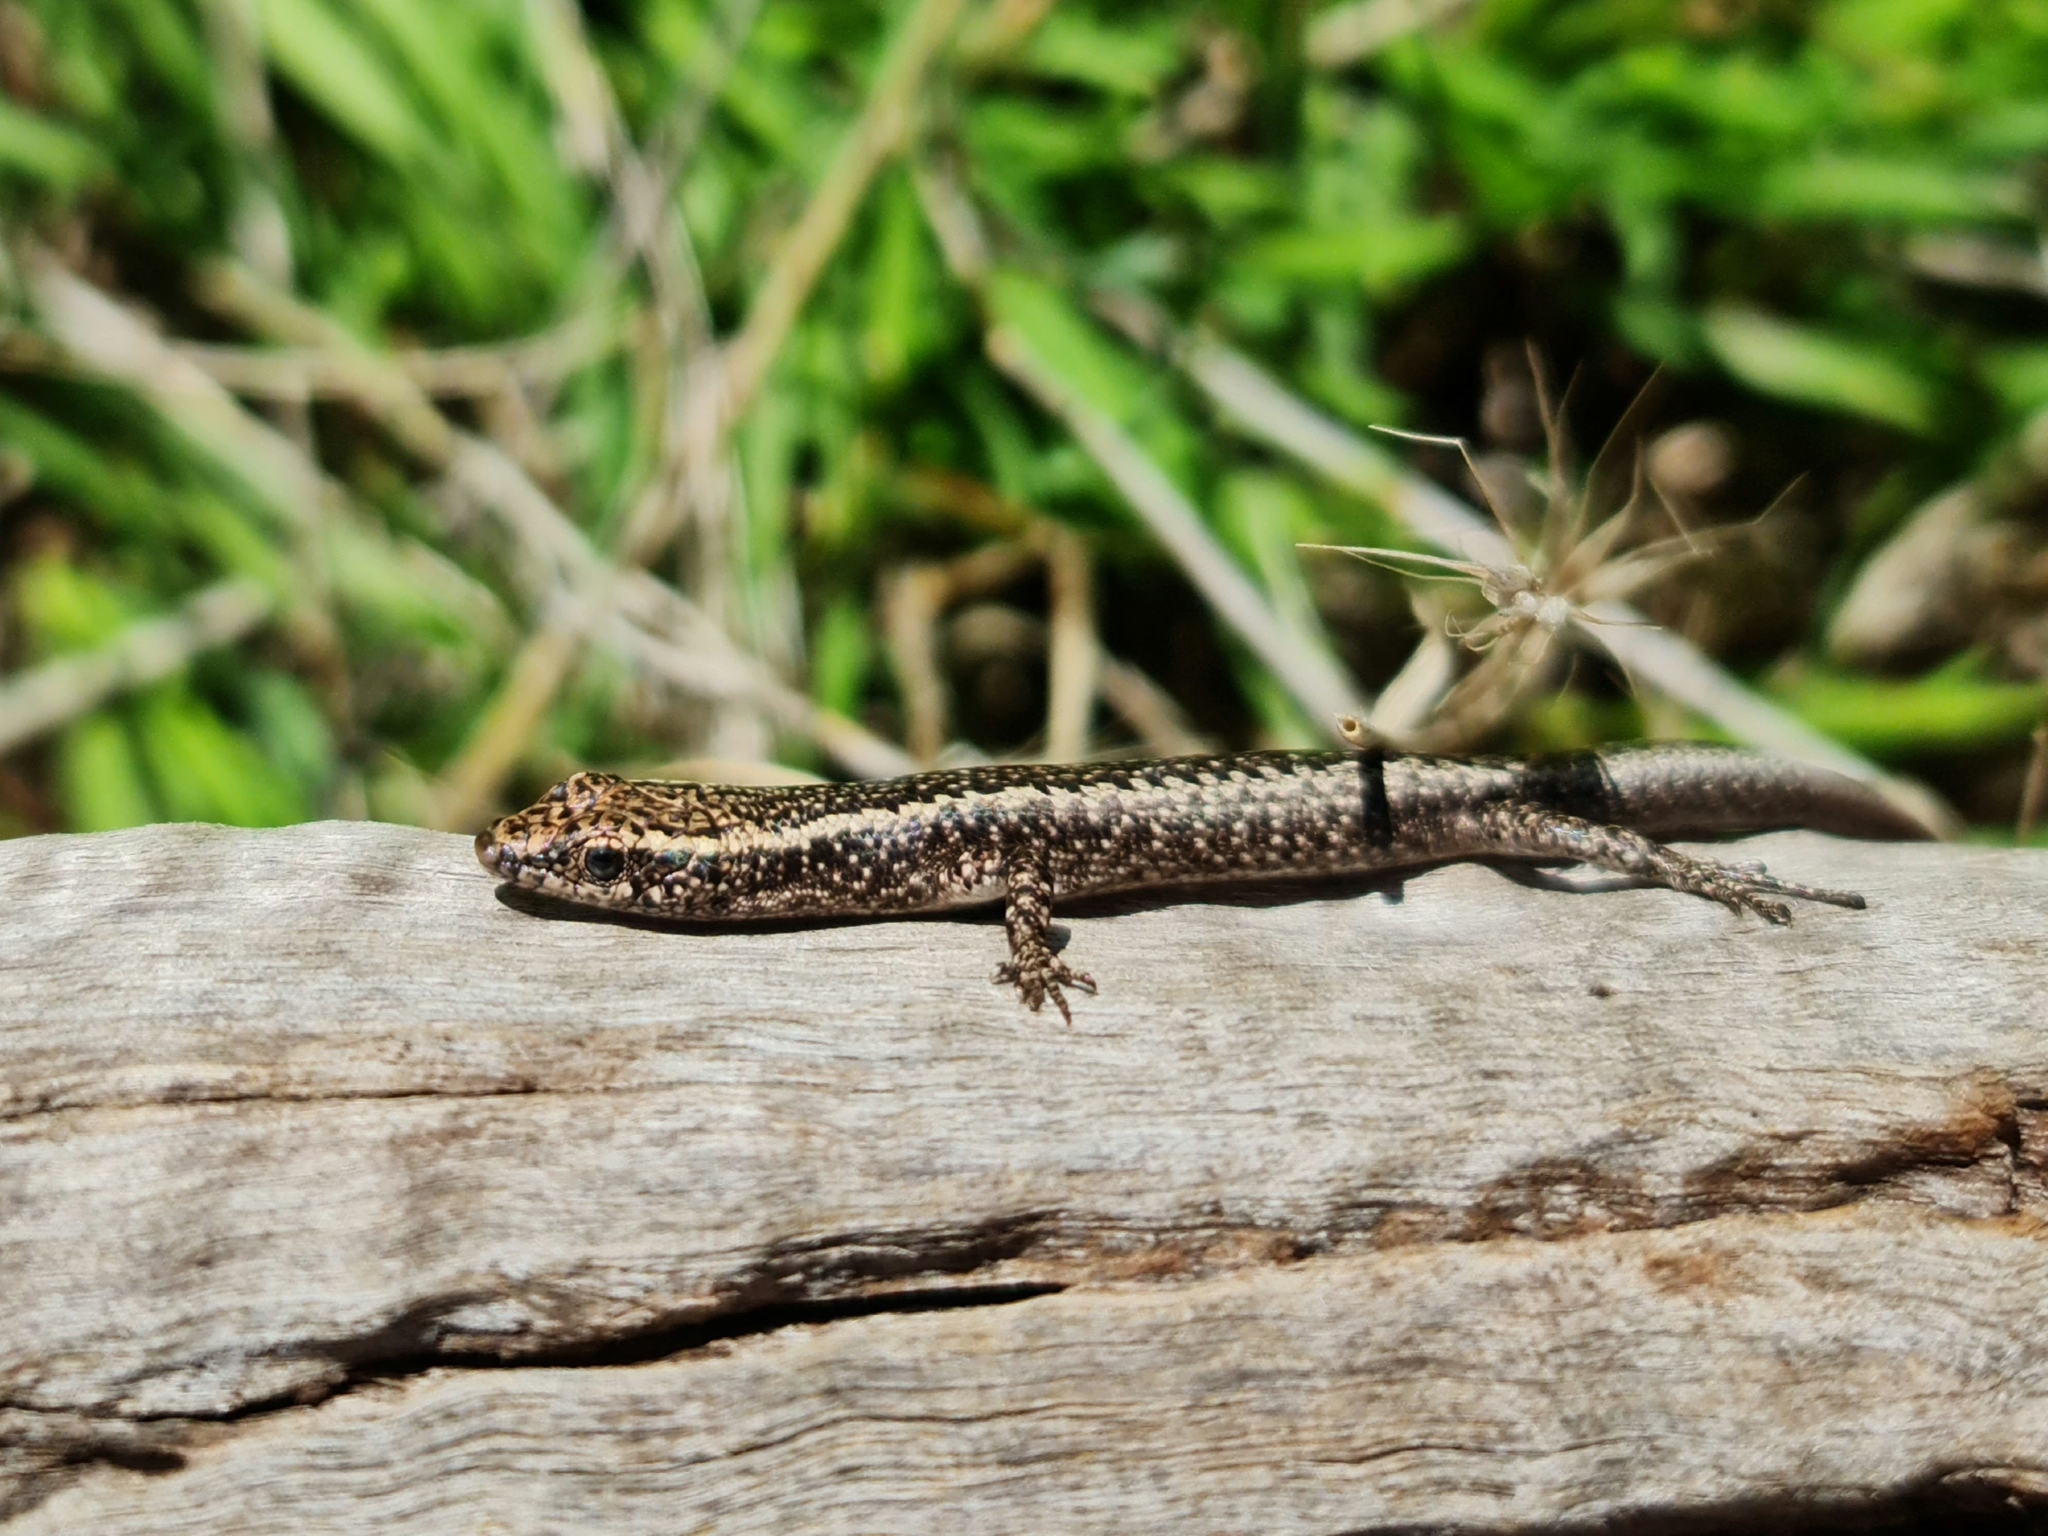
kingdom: Animalia
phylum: Chordata
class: Squamata
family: Scincidae
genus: Cryptoblepharus
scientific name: Cryptoblepharus pannosus
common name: Ragged snake-eyed skink
